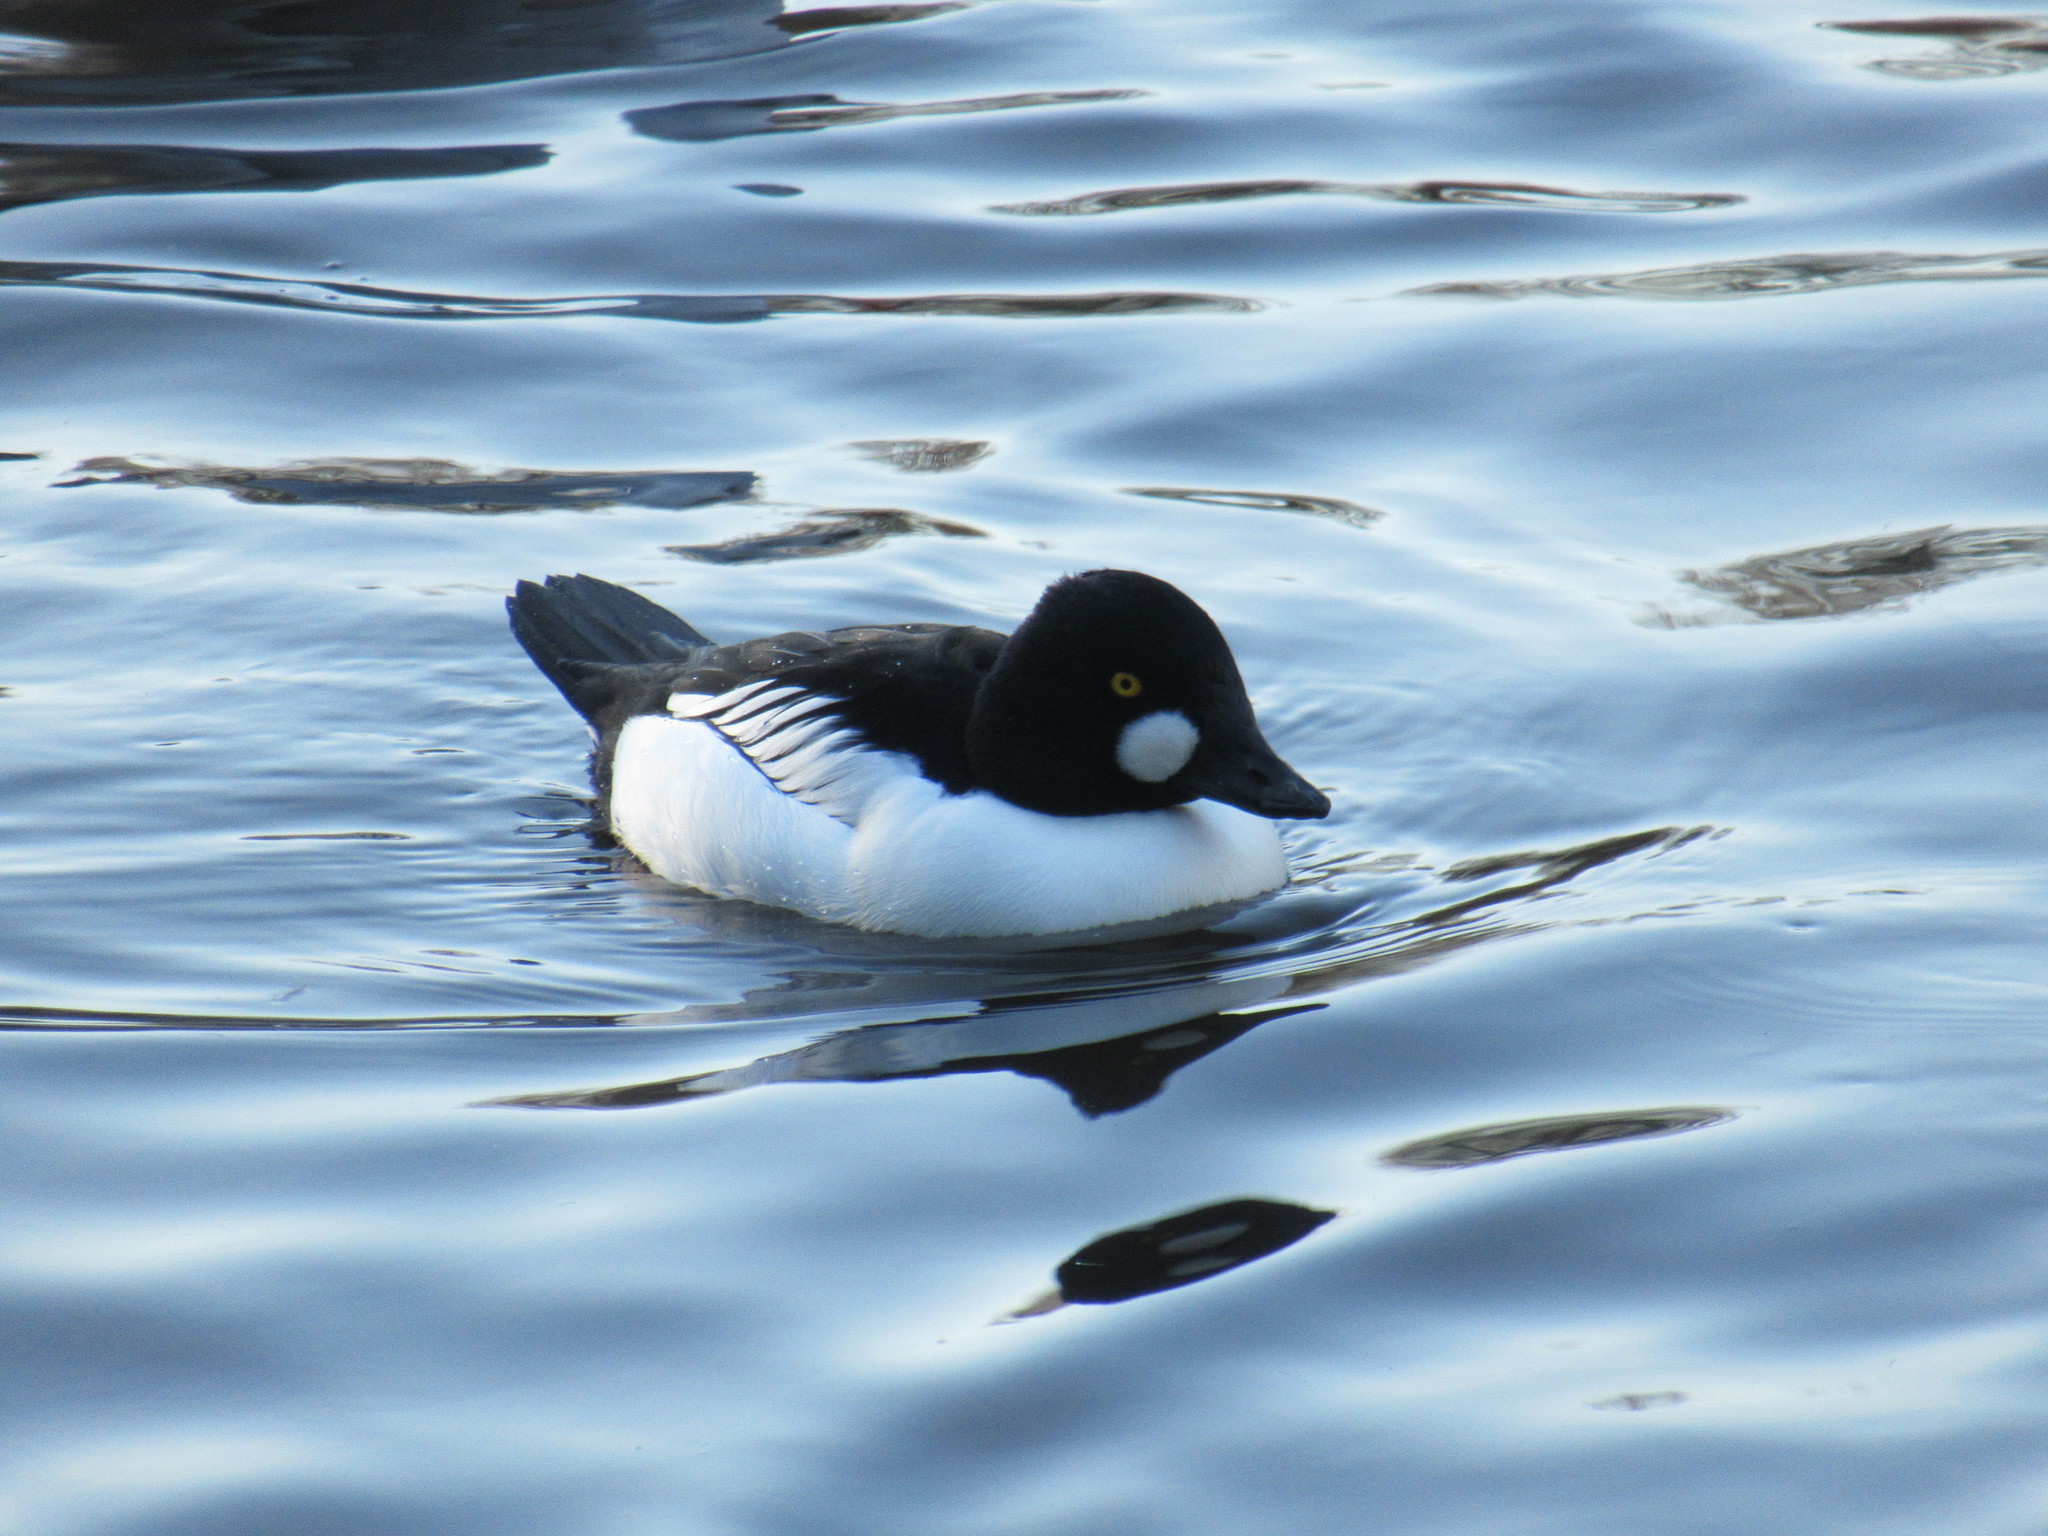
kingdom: Animalia
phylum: Chordata
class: Aves
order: Anseriformes
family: Anatidae
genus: Bucephala
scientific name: Bucephala clangula
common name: Common goldeneye
